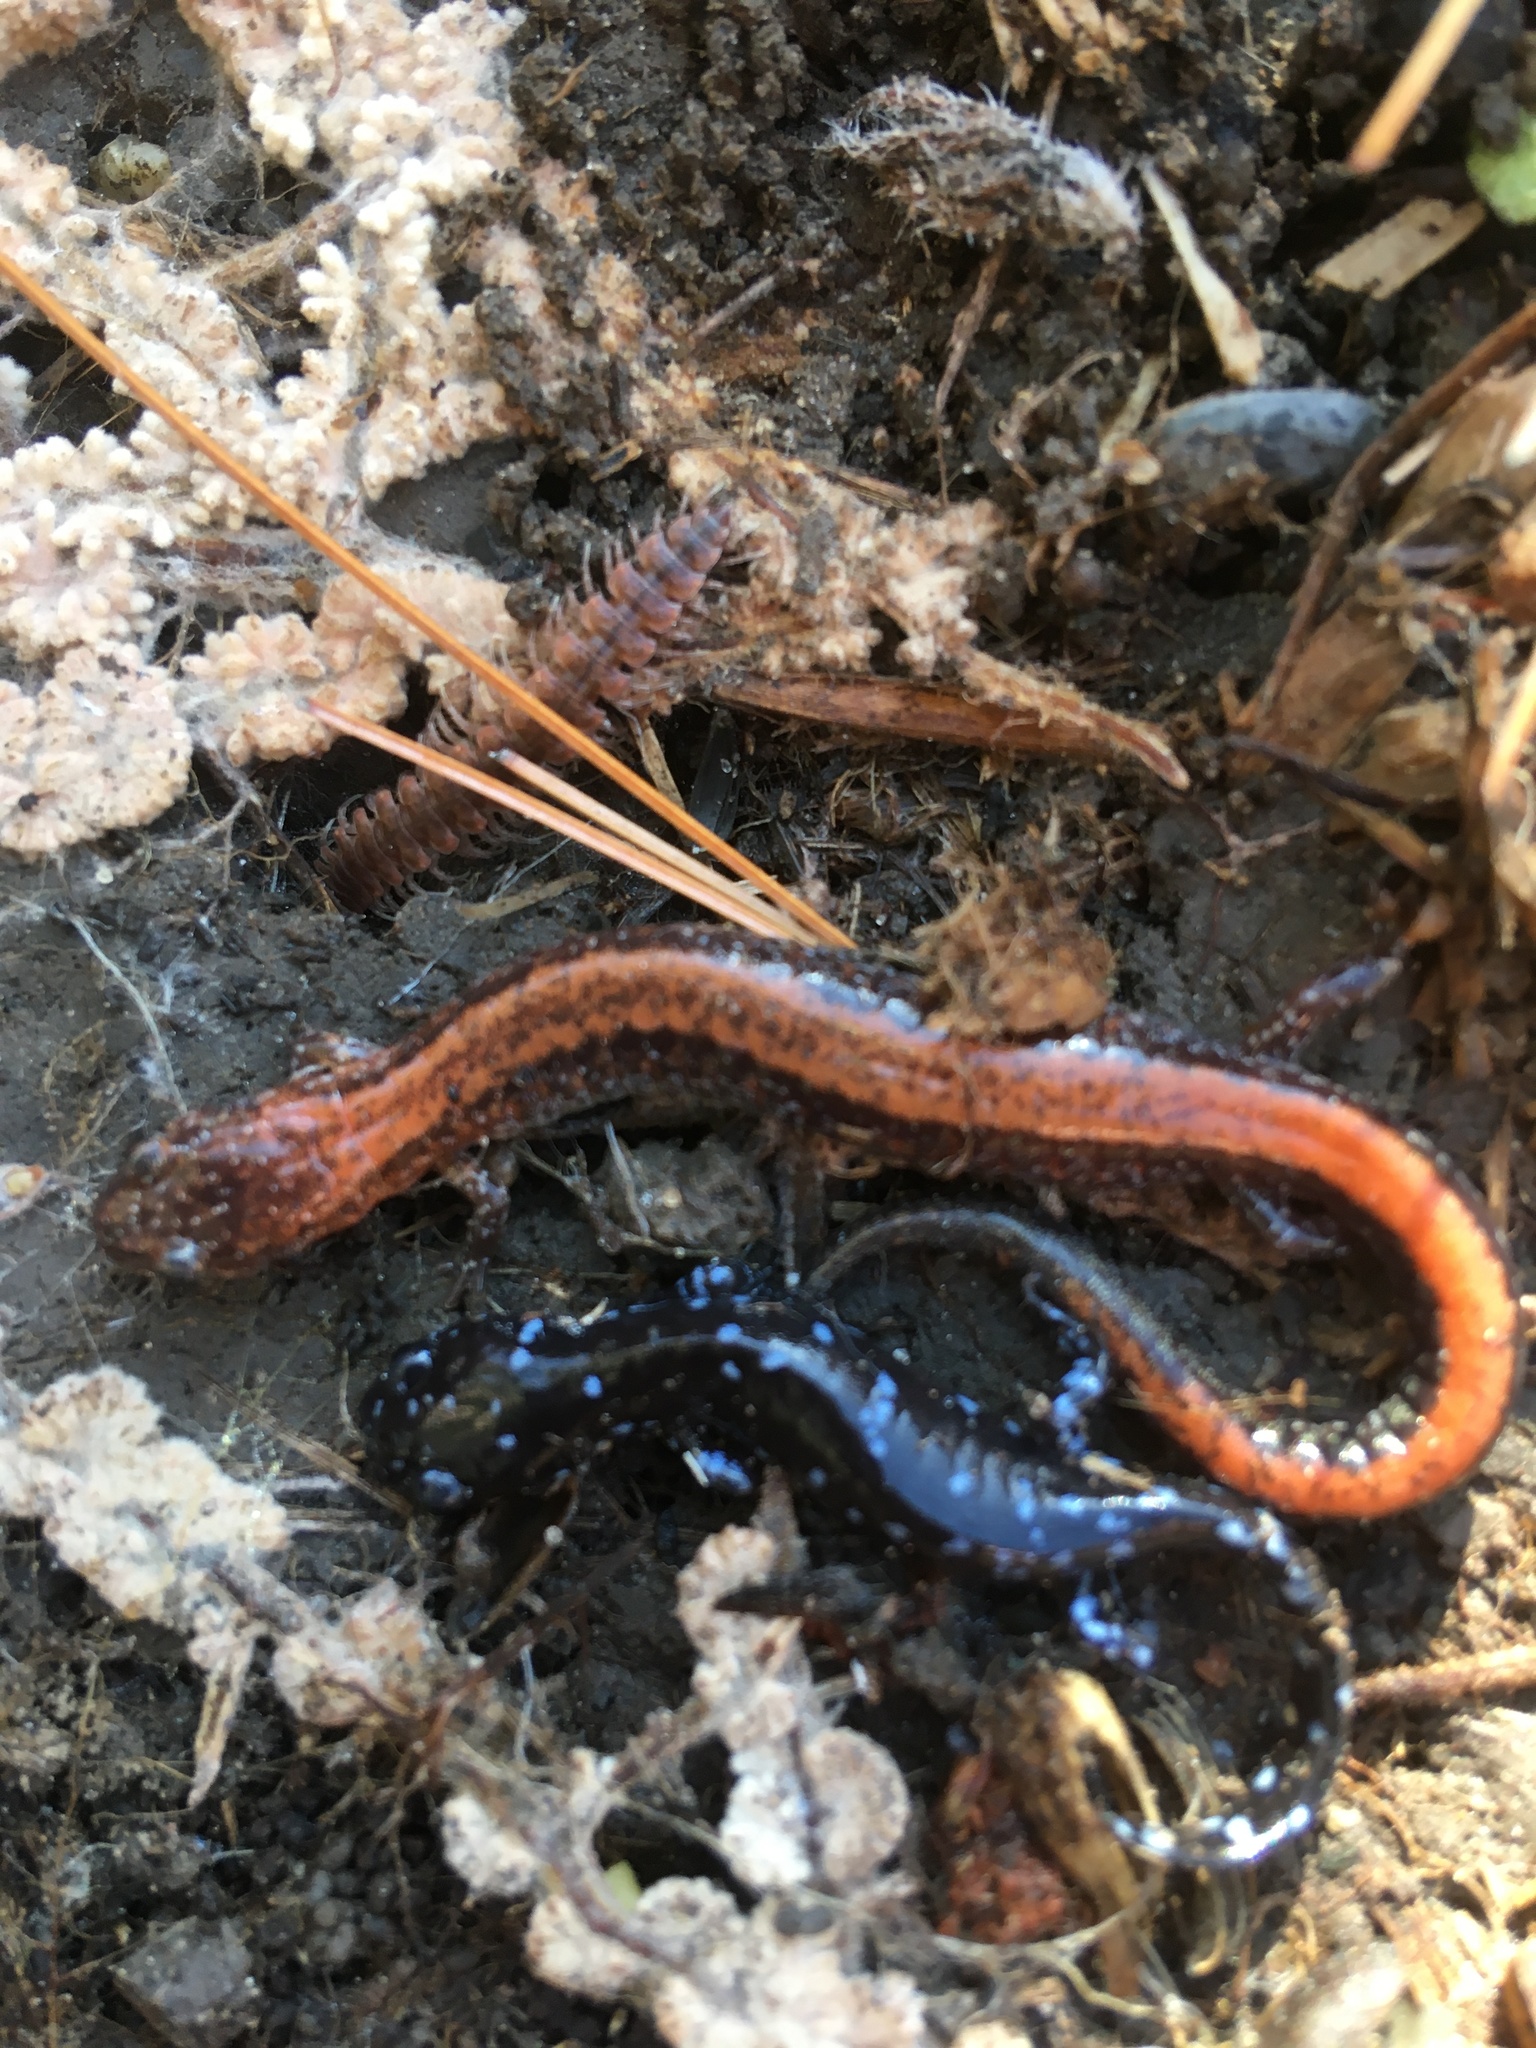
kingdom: Animalia
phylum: Chordata
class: Amphibia
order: Caudata
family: Plethodontidae
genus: Plethodon
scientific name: Plethodon cinereus
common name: Redback salamander
